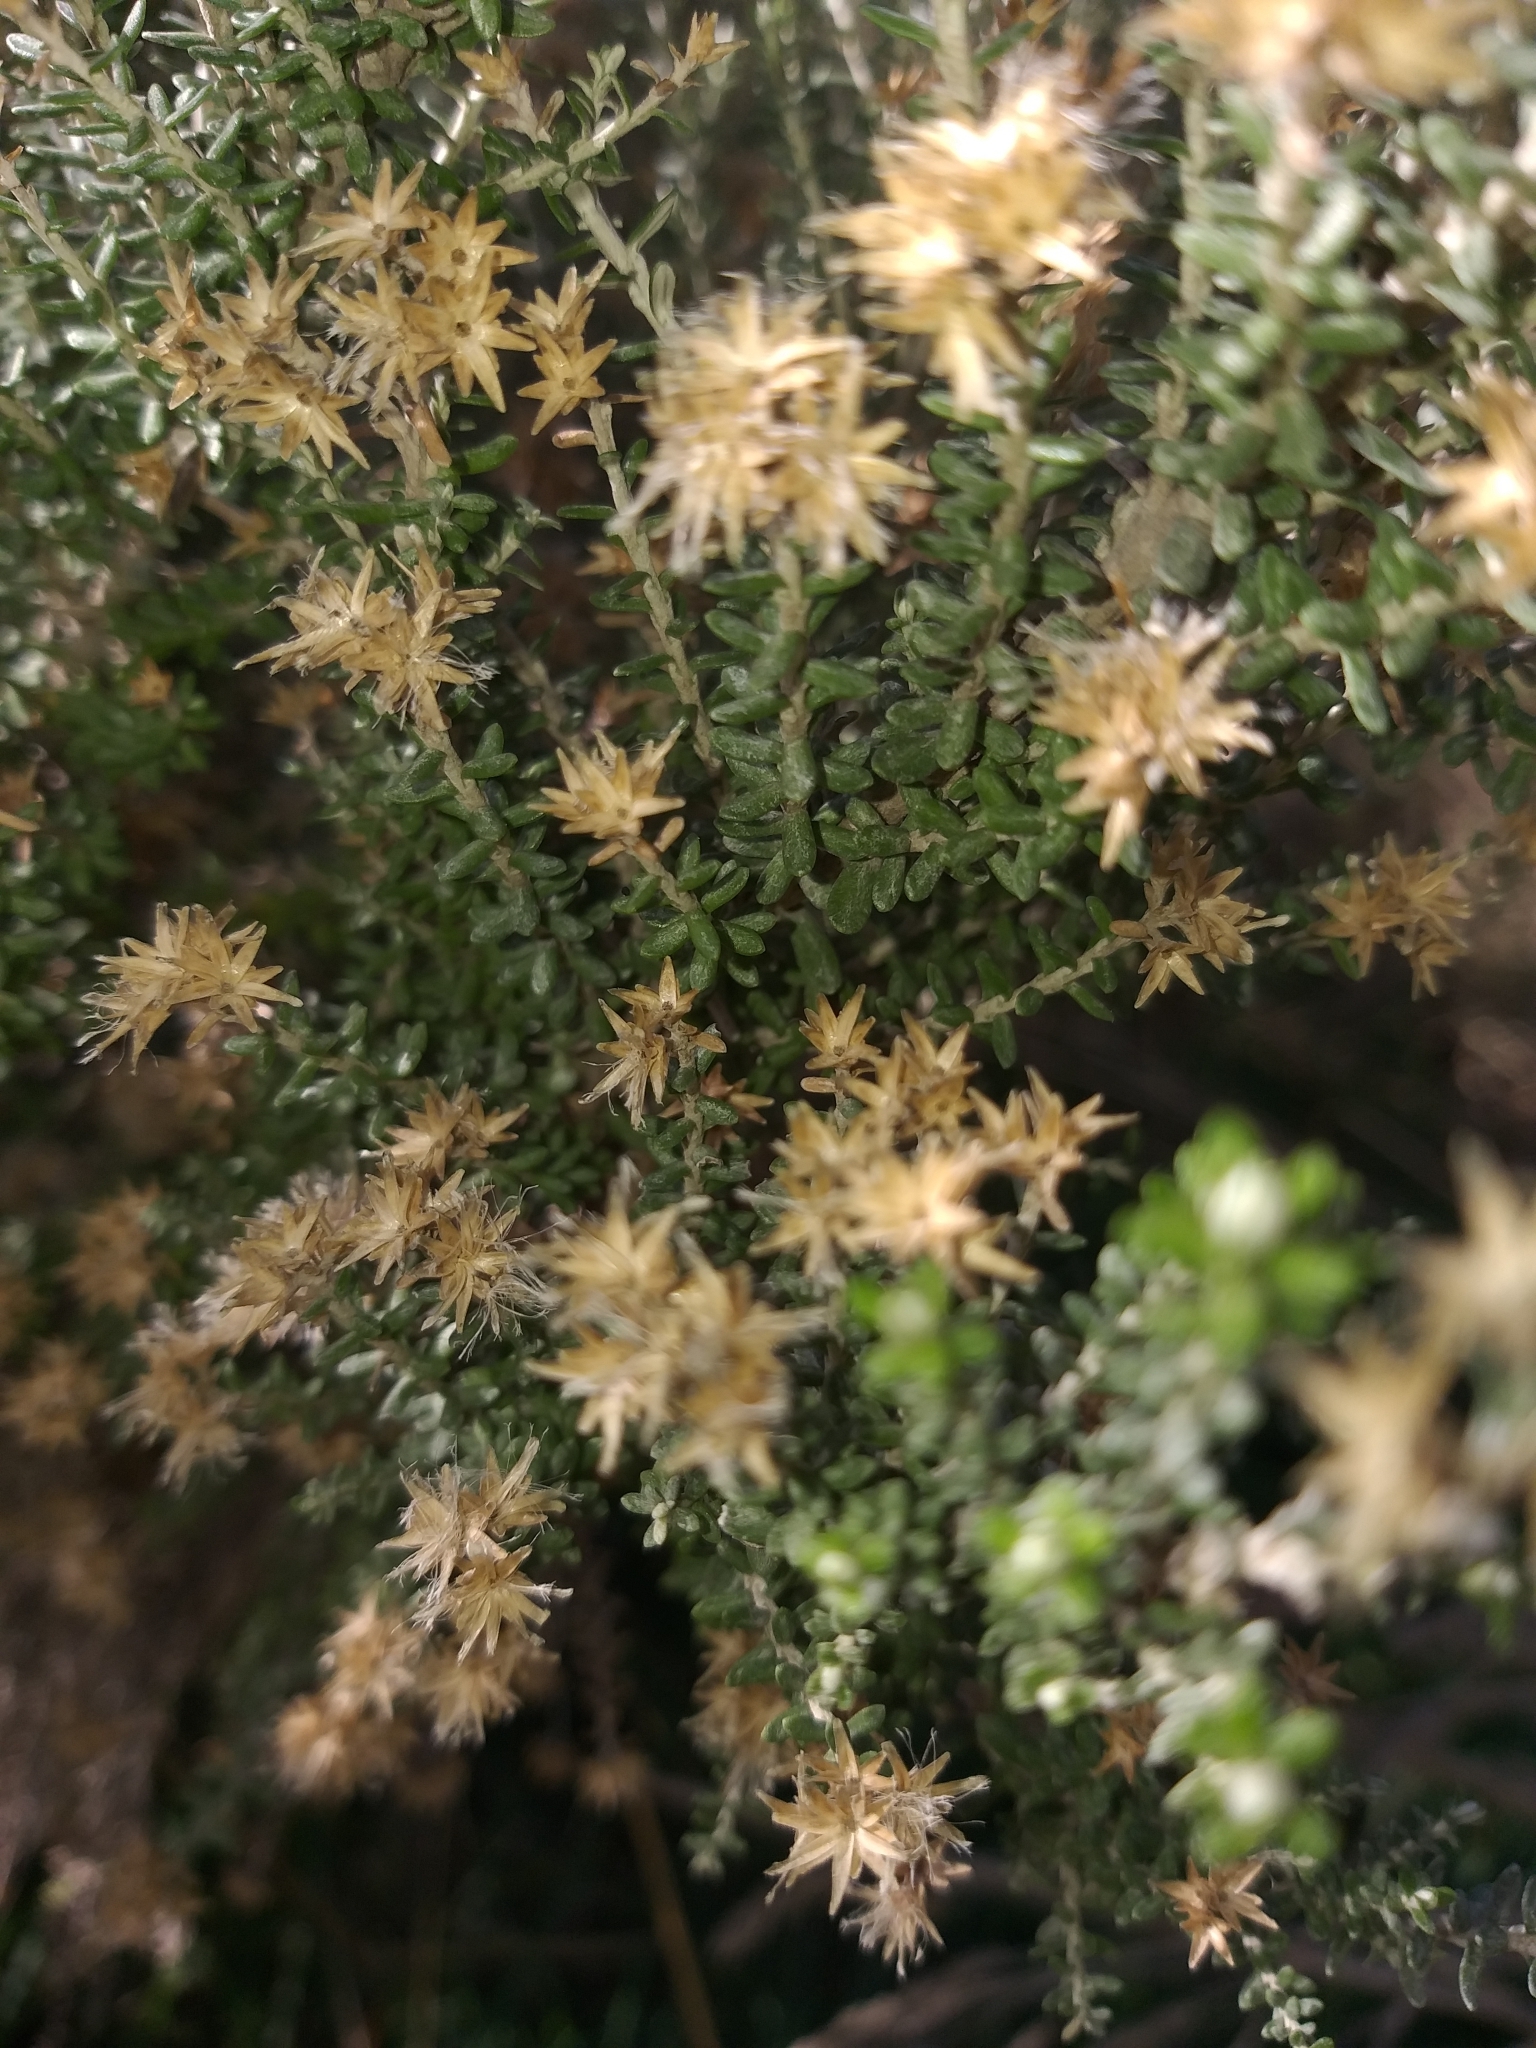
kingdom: Plantae
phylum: Tracheophyta
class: Magnoliopsida
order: Asterales
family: Asteraceae
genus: Ozothamnus
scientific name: Ozothamnus leptophyllus
